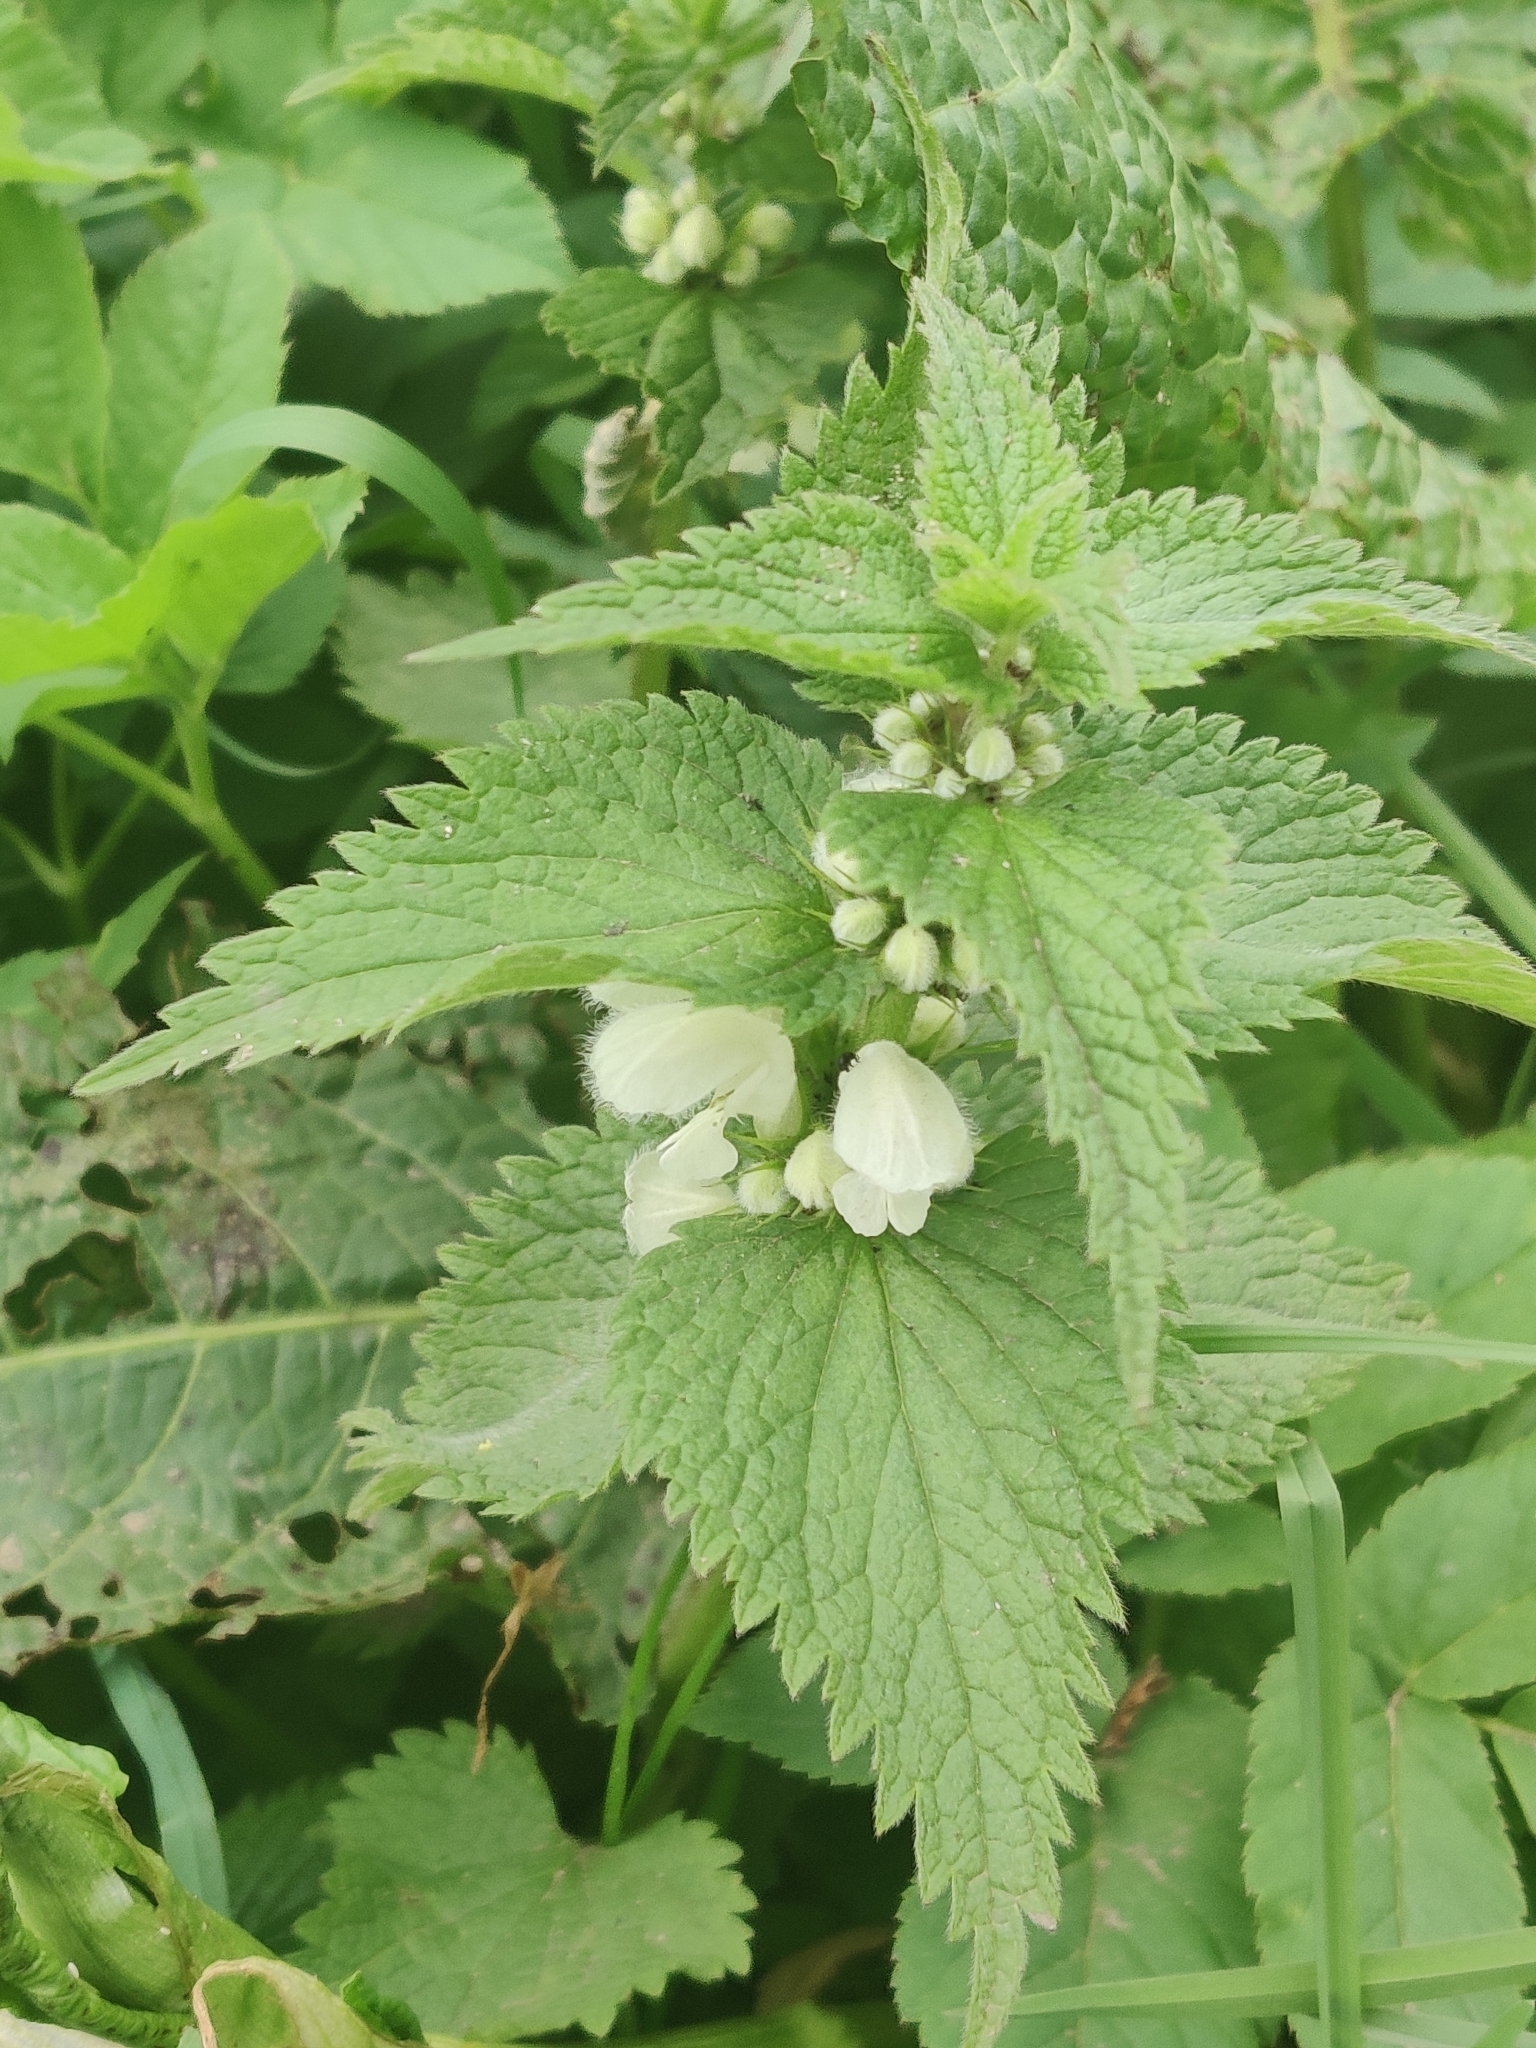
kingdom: Plantae
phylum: Tracheophyta
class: Magnoliopsida
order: Lamiales
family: Lamiaceae
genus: Lamium
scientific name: Lamium album
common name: White dead-nettle
